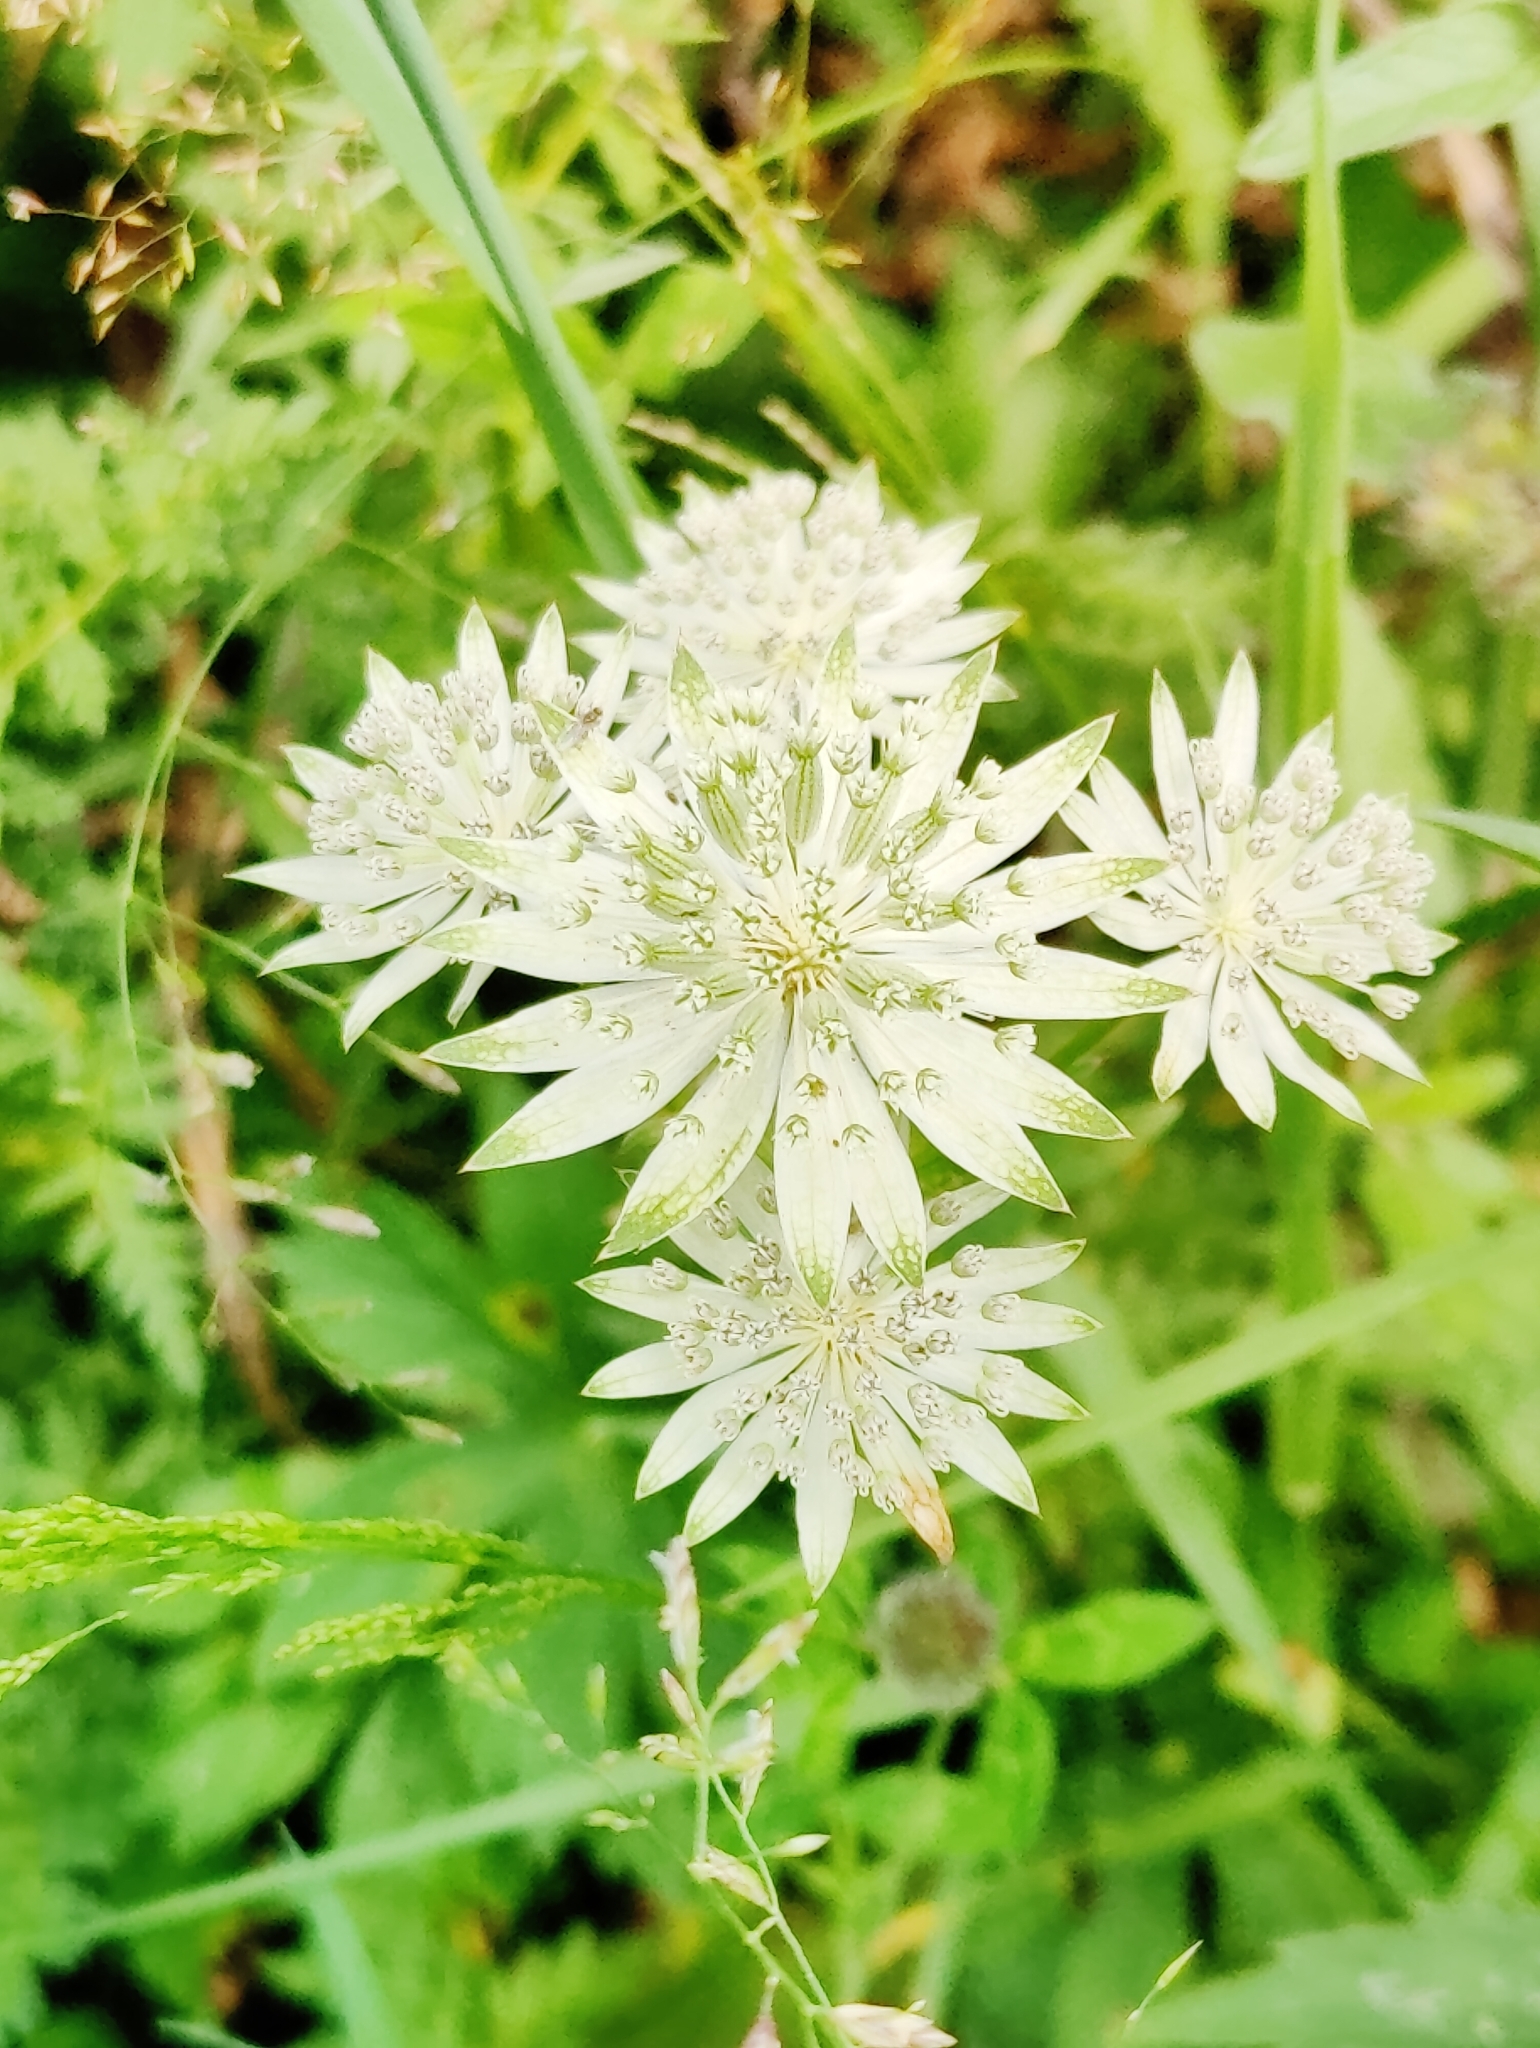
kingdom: Plantae
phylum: Tracheophyta
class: Magnoliopsida
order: Apiales
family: Apiaceae
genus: Astrantia
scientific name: Astrantia major
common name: Greater masterwort
